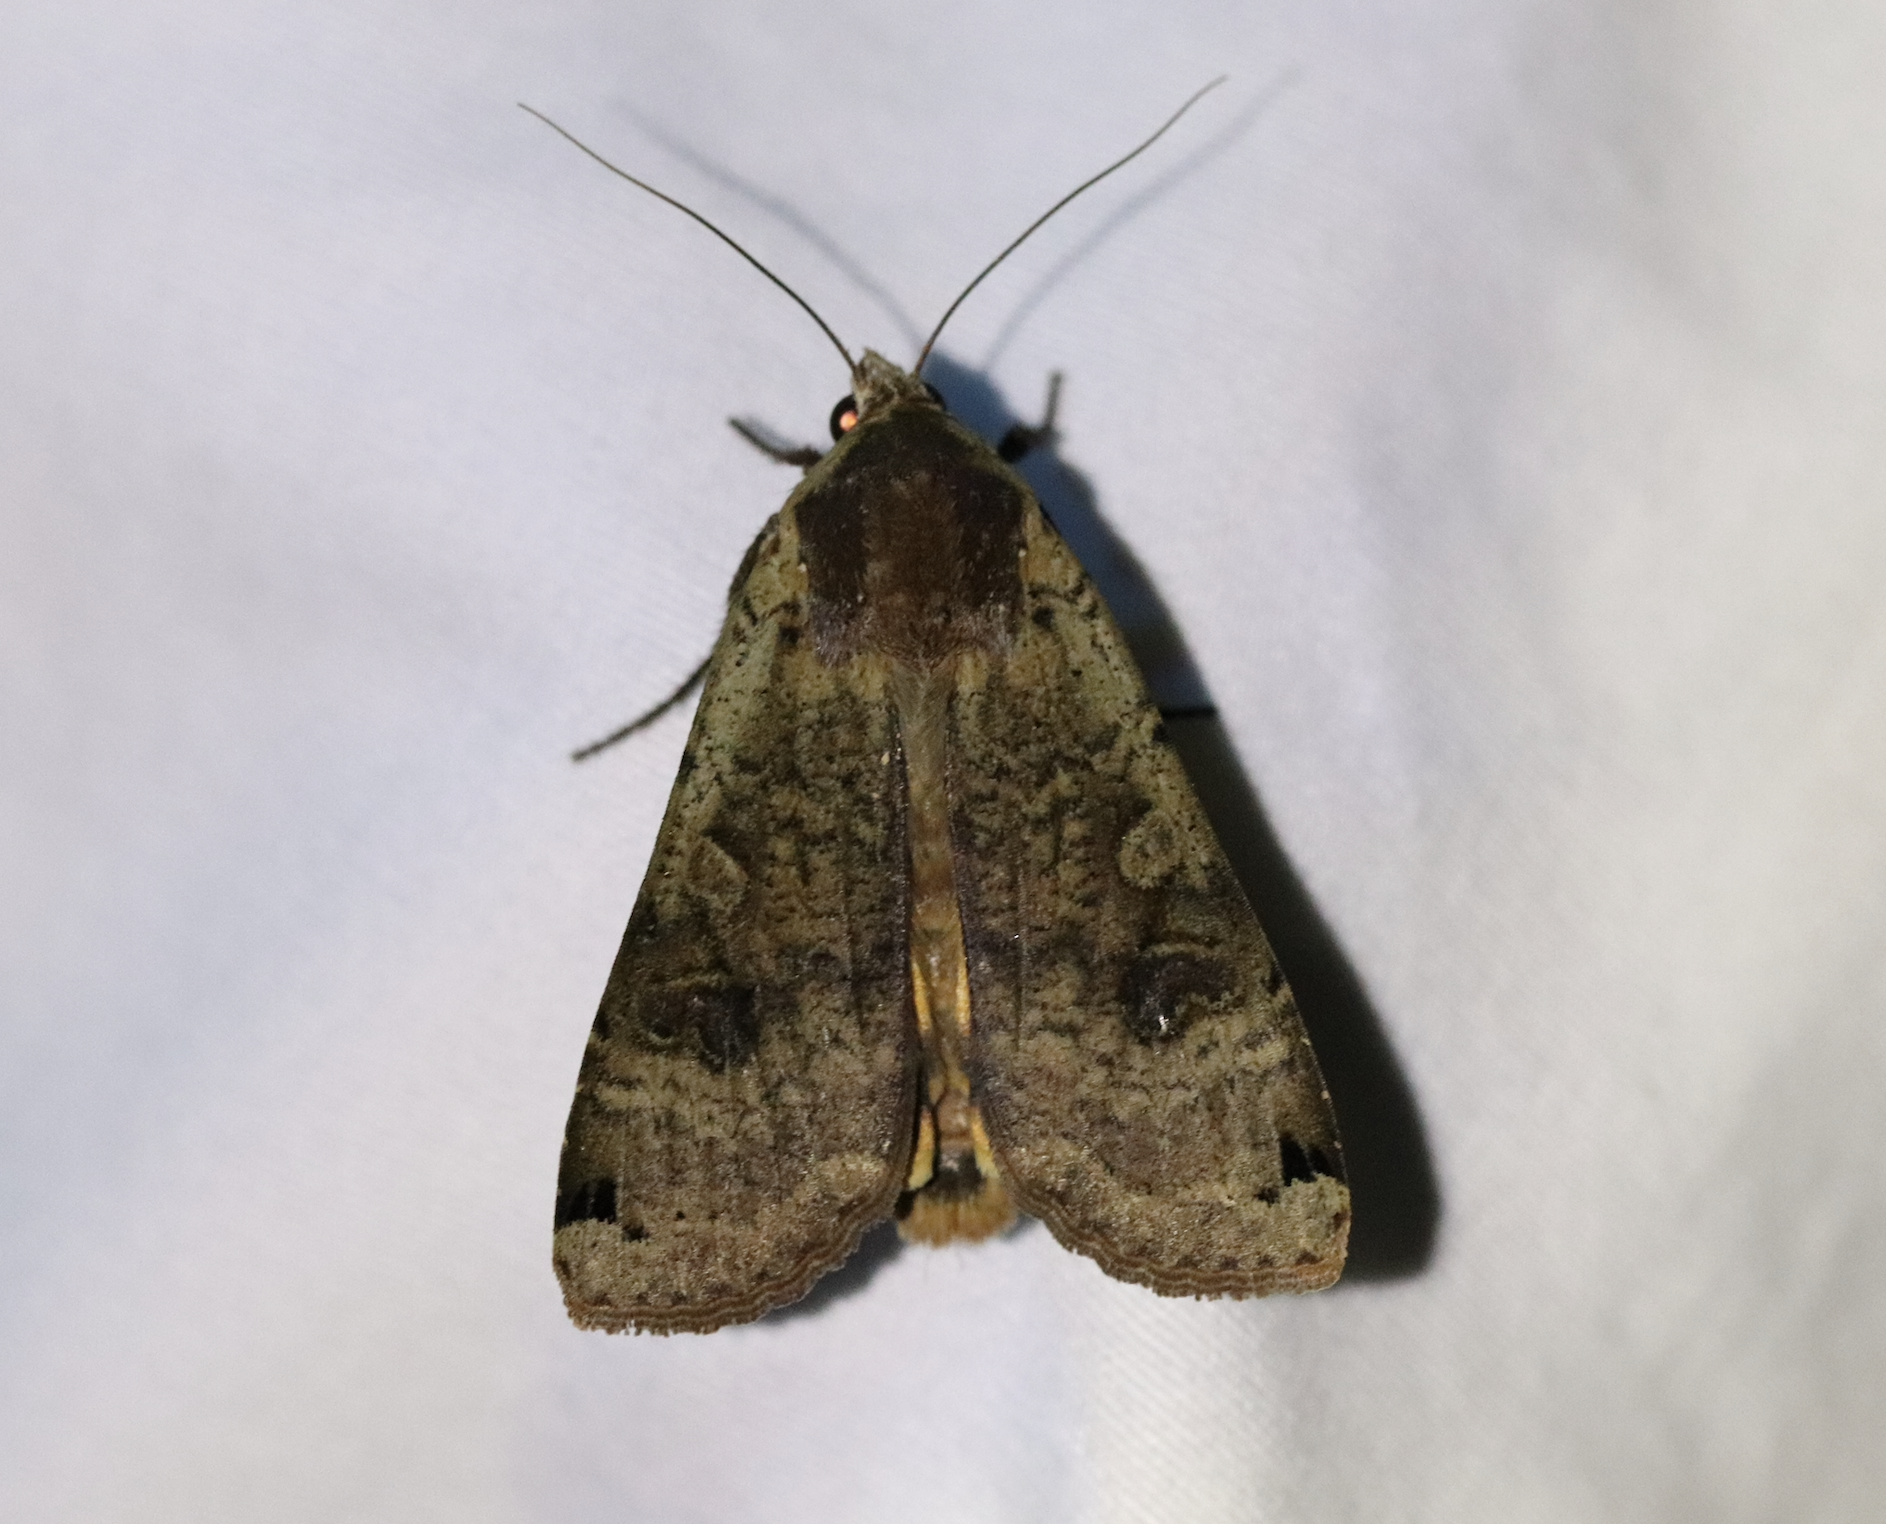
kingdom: Animalia
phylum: Arthropoda
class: Insecta
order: Lepidoptera
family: Noctuidae
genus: Noctua
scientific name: Noctua pronuba
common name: Large yellow underwing
